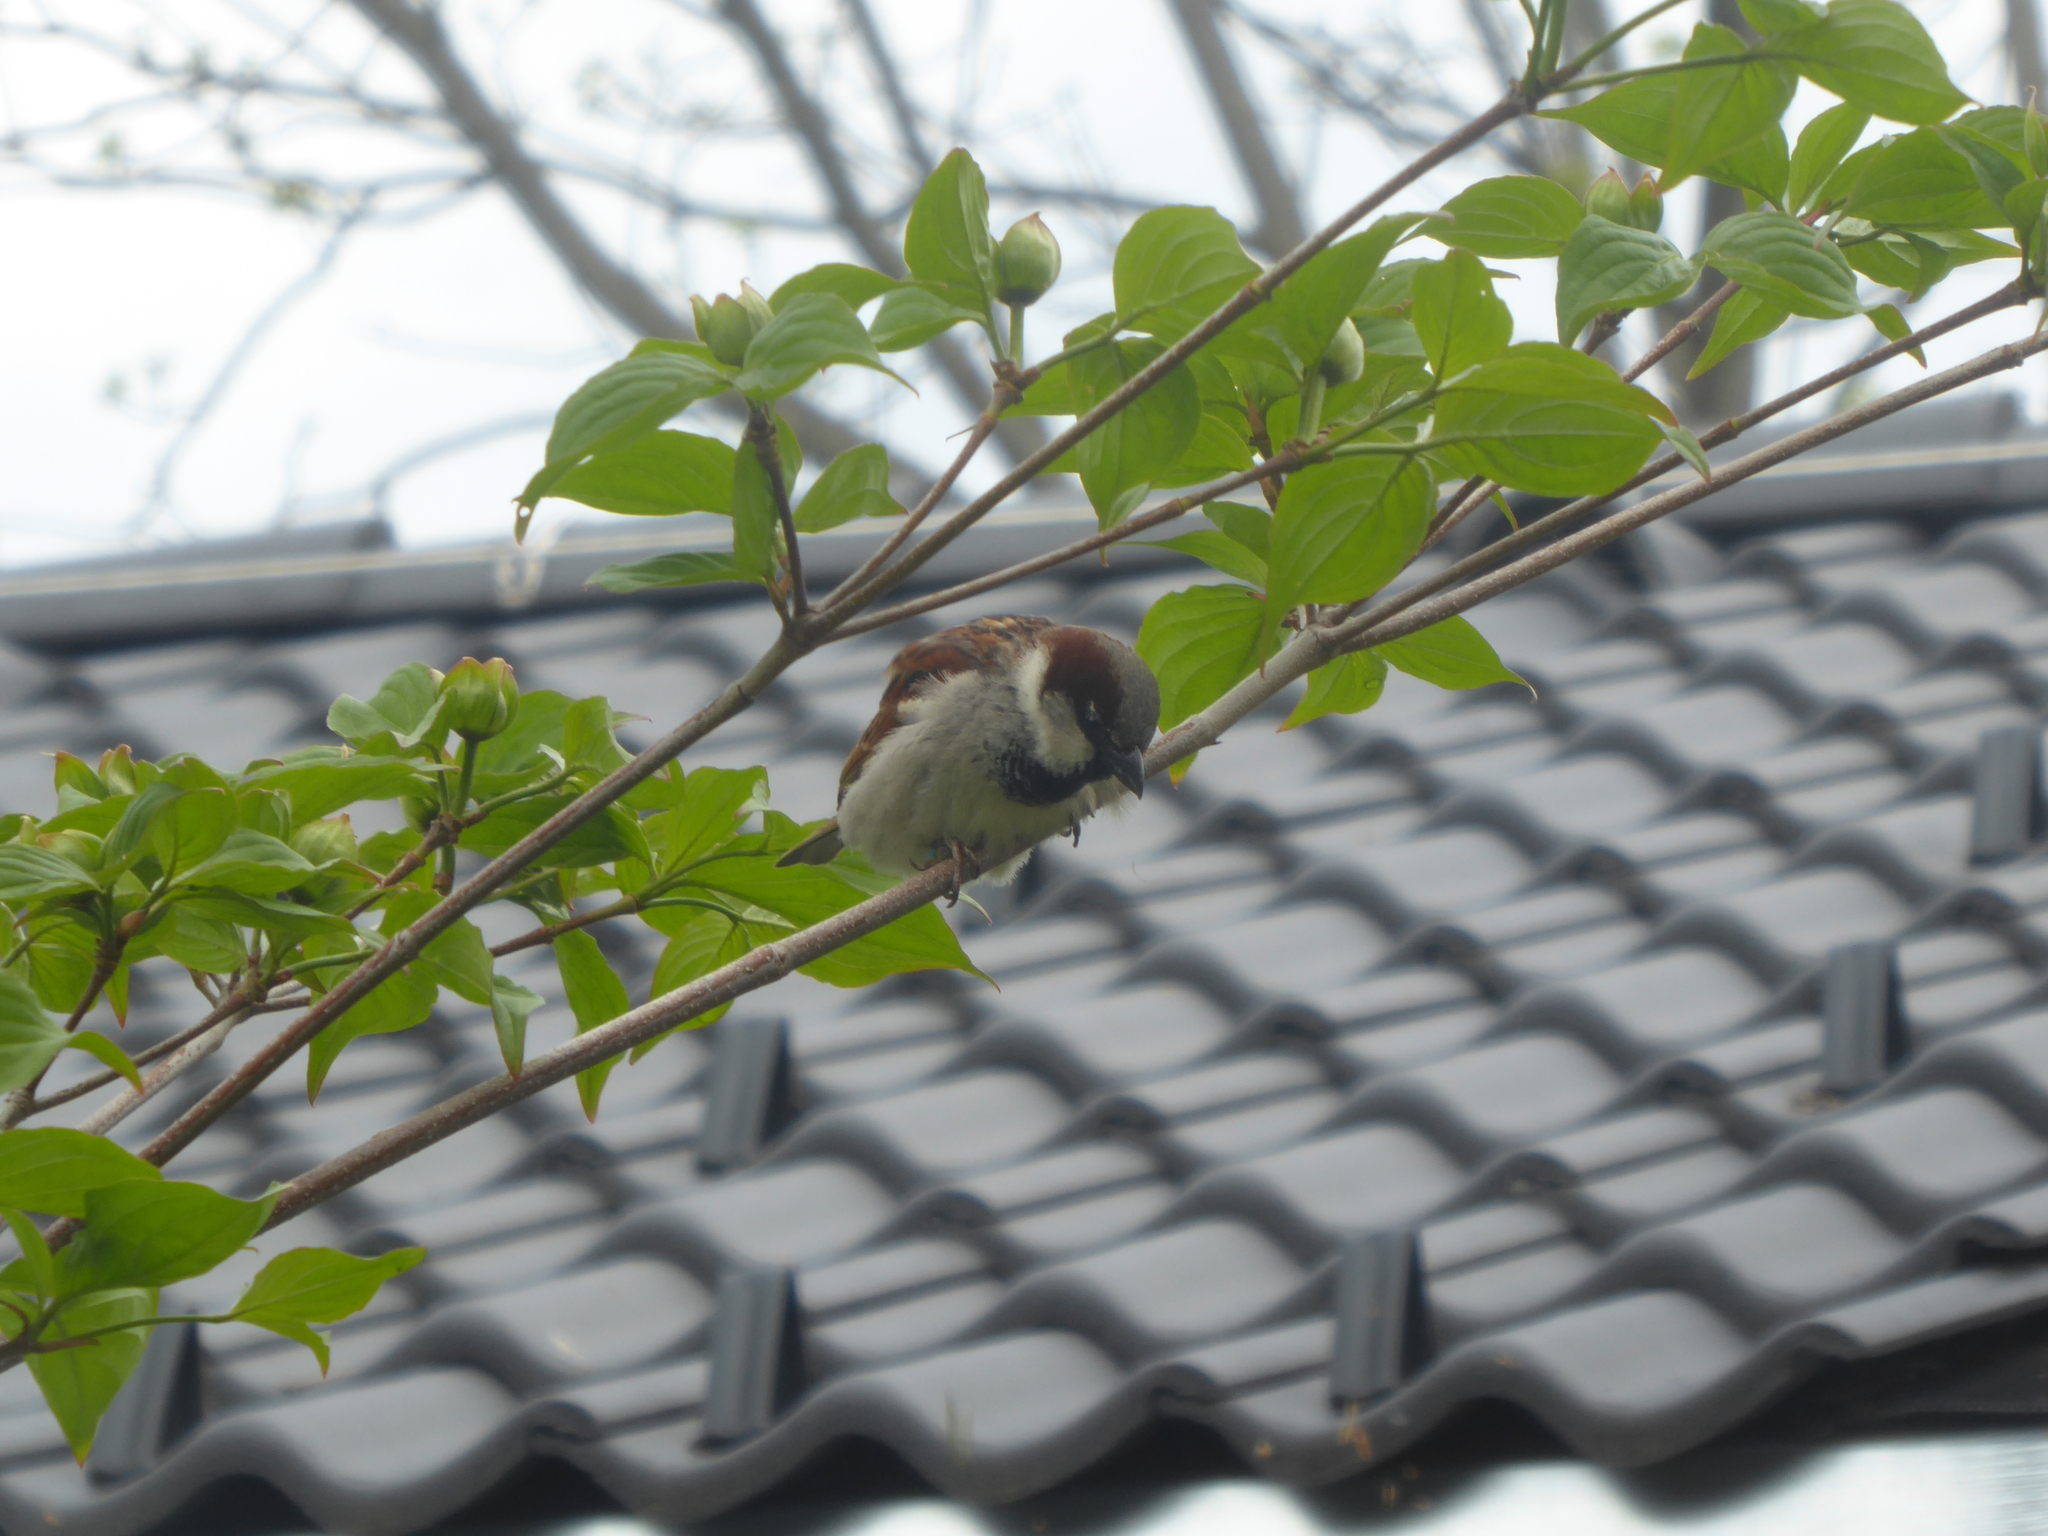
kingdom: Animalia
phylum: Chordata
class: Aves
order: Passeriformes
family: Passeridae
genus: Passer
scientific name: Passer domesticus
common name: House sparrow
